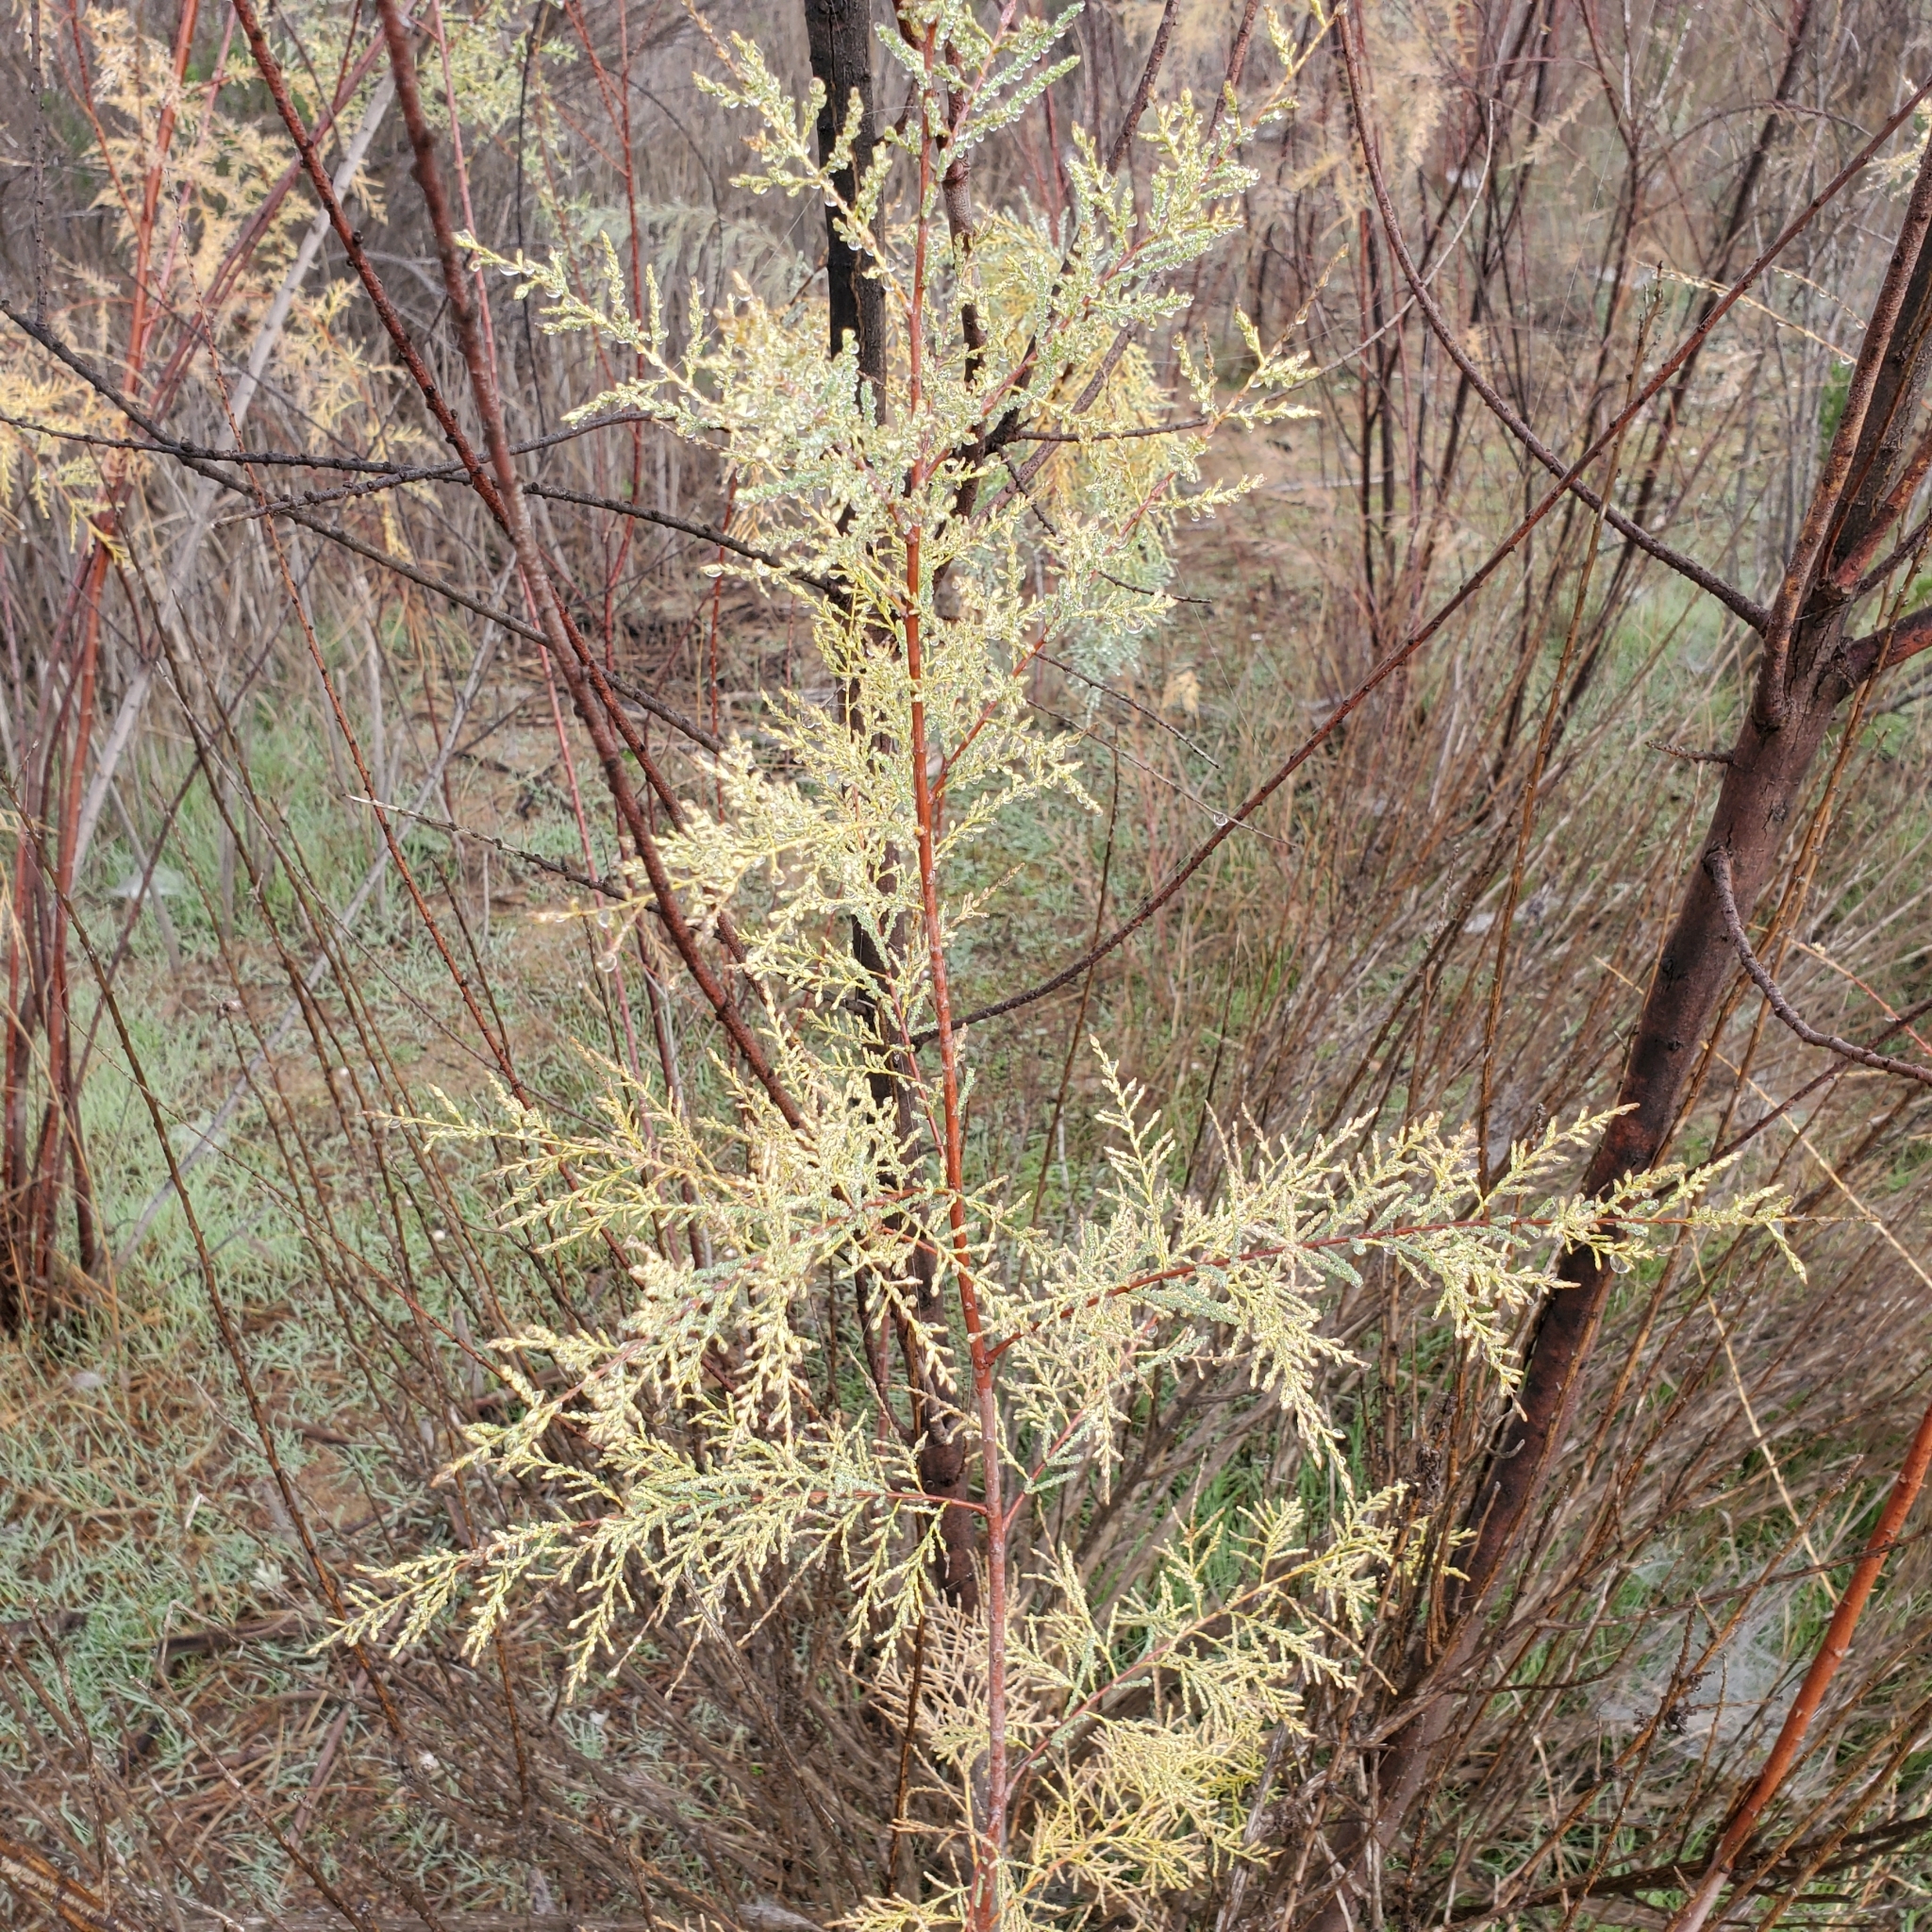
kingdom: Plantae
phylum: Tracheophyta
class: Magnoliopsida
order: Caryophyllales
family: Tamaricaceae
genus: Tamarix
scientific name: Tamarix
